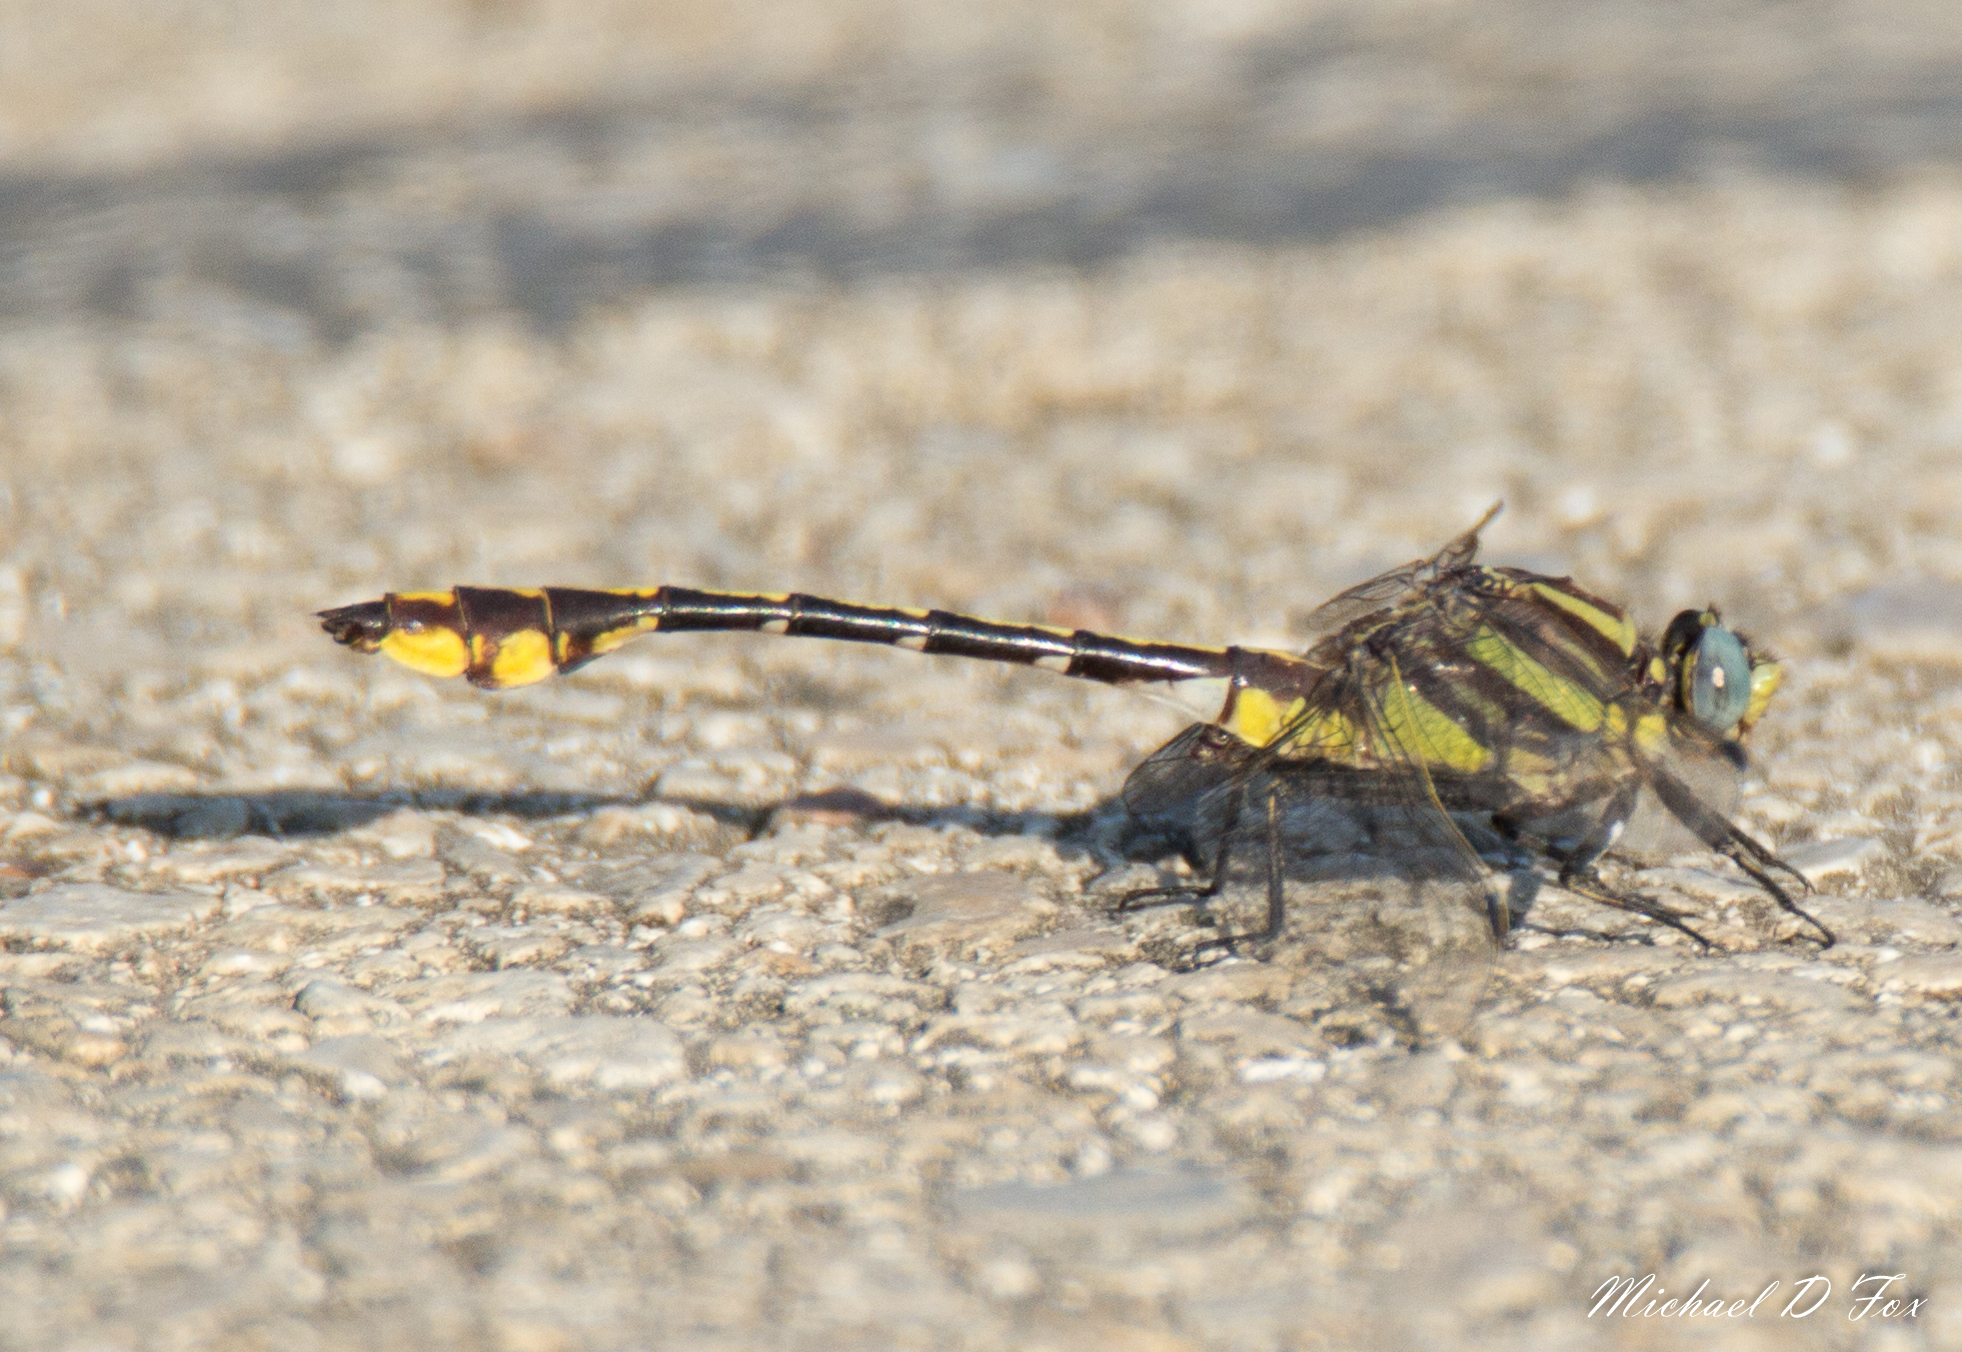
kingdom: Animalia
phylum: Arthropoda
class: Insecta
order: Odonata
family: Gomphidae
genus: Gomphurus
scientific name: Gomphurus externus
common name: Plains clubtail
